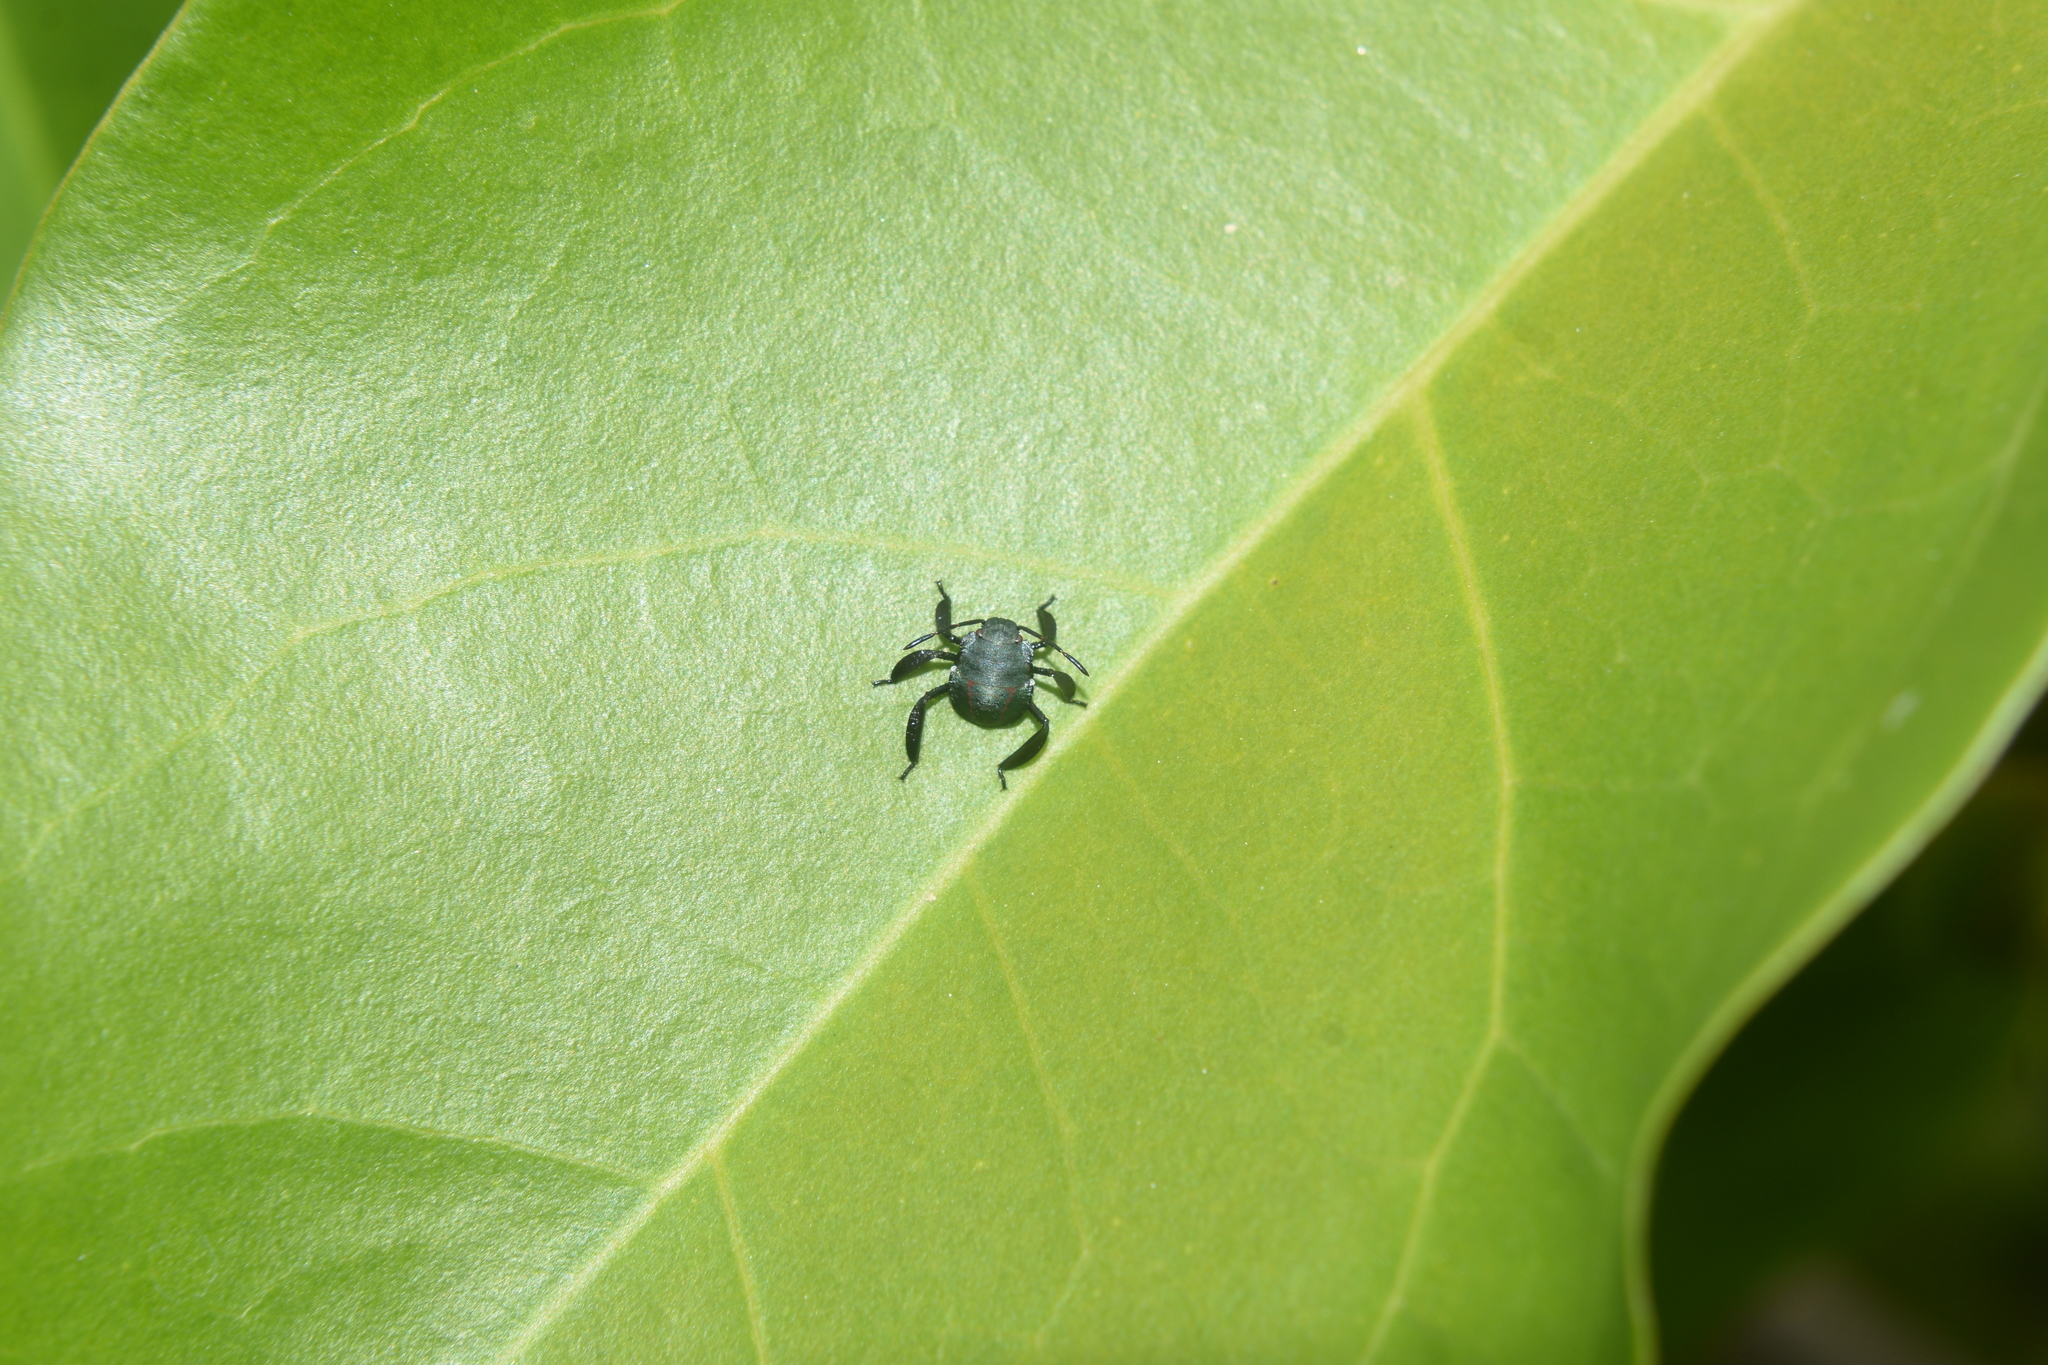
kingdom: Animalia
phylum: Arthropoda
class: Insecta
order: Hemiptera
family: Pentatomidae
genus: Pellaea
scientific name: Pellaea stictica
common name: Stink bug
